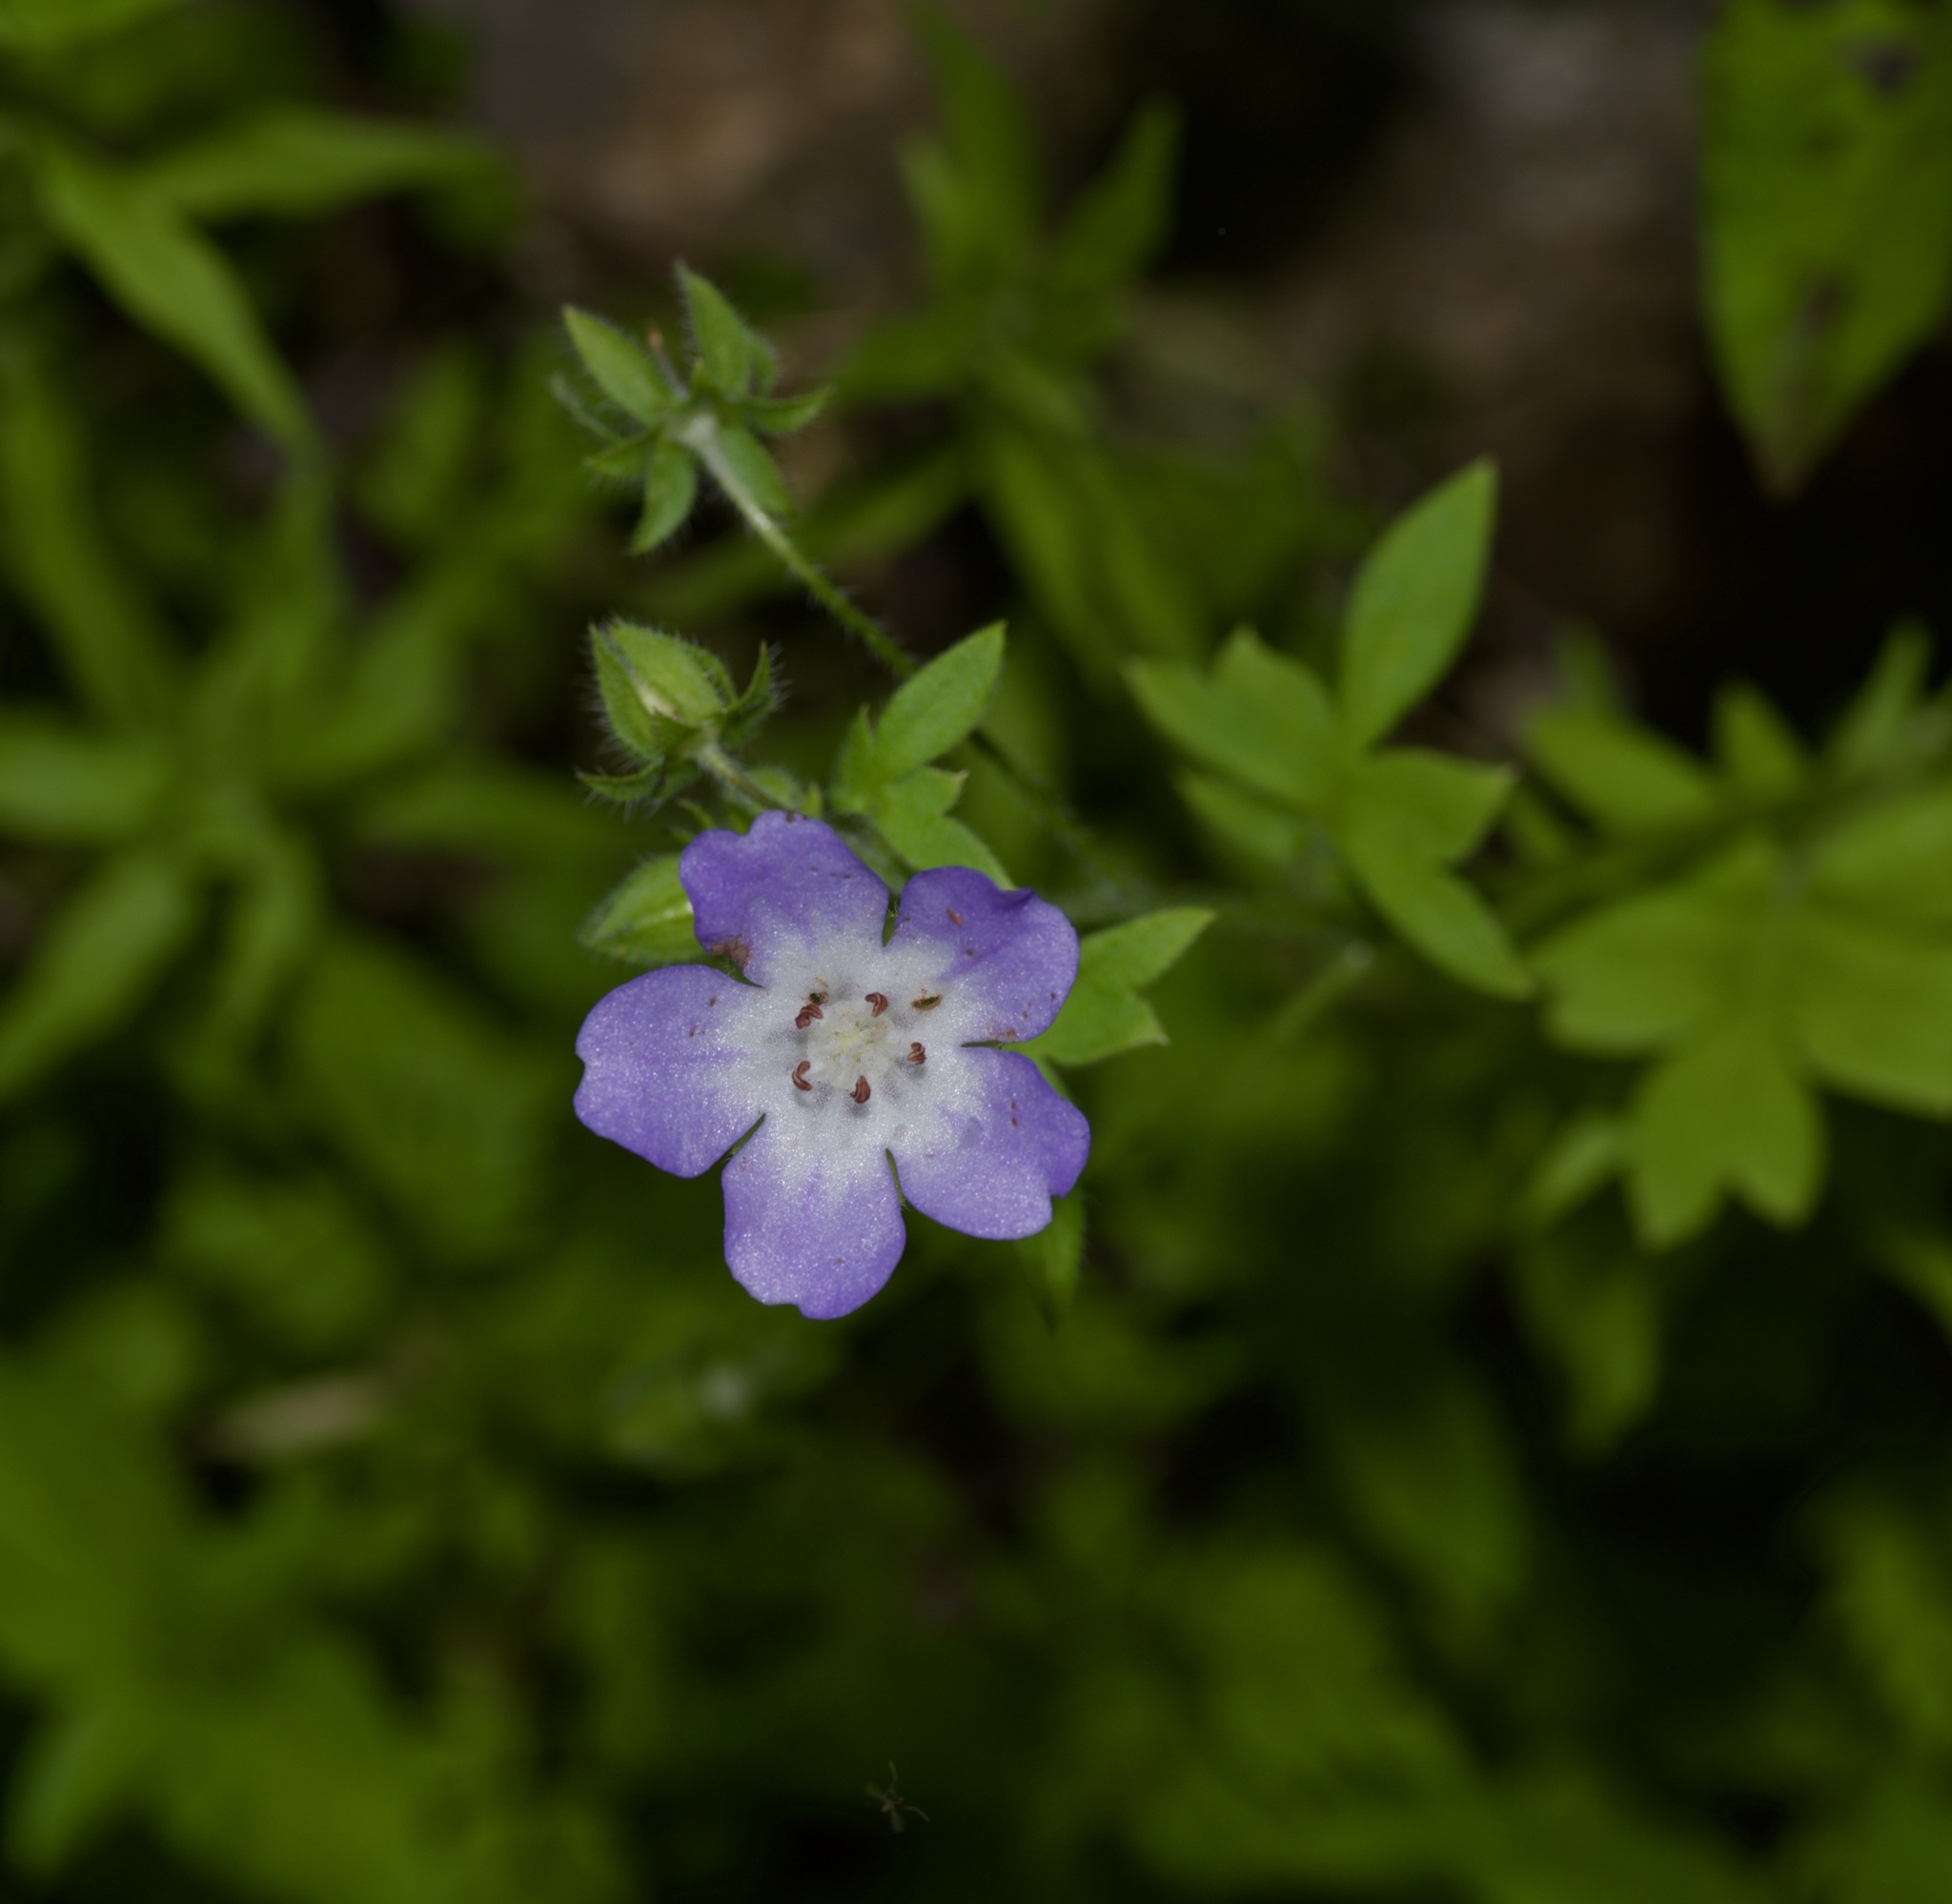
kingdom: Plantae
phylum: Tracheophyta
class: Magnoliopsida
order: Boraginales
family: Hydrophyllaceae
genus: Nemophila
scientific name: Nemophila phacelioides
